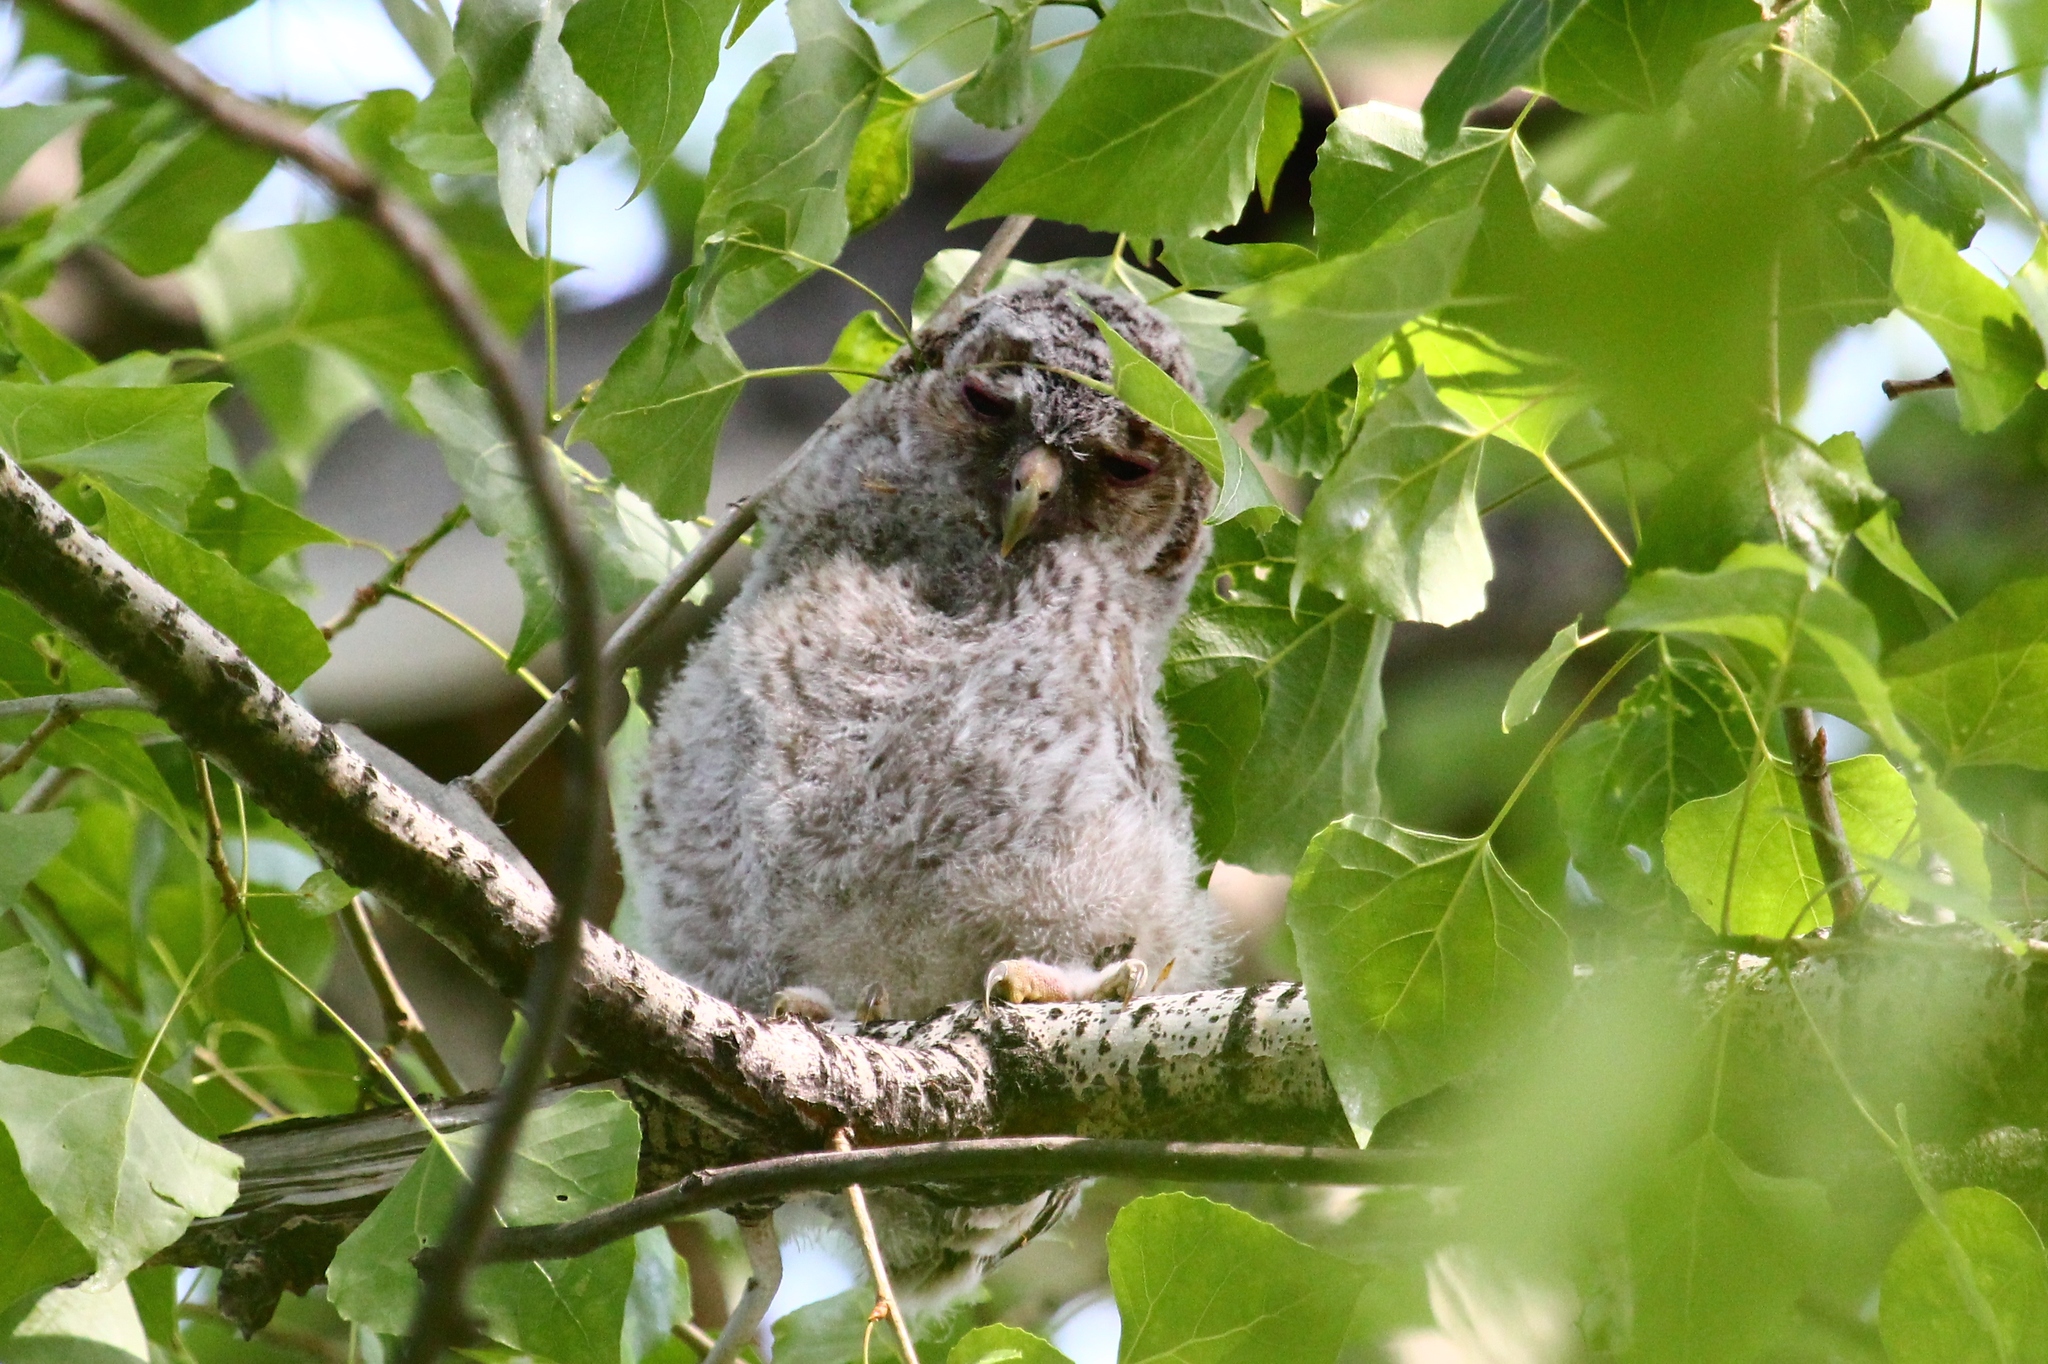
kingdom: Animalia
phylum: Chordata
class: Aves
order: Strigiformes
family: Strigidae
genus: Strix
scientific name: Strix aluco
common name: Tawny owl
